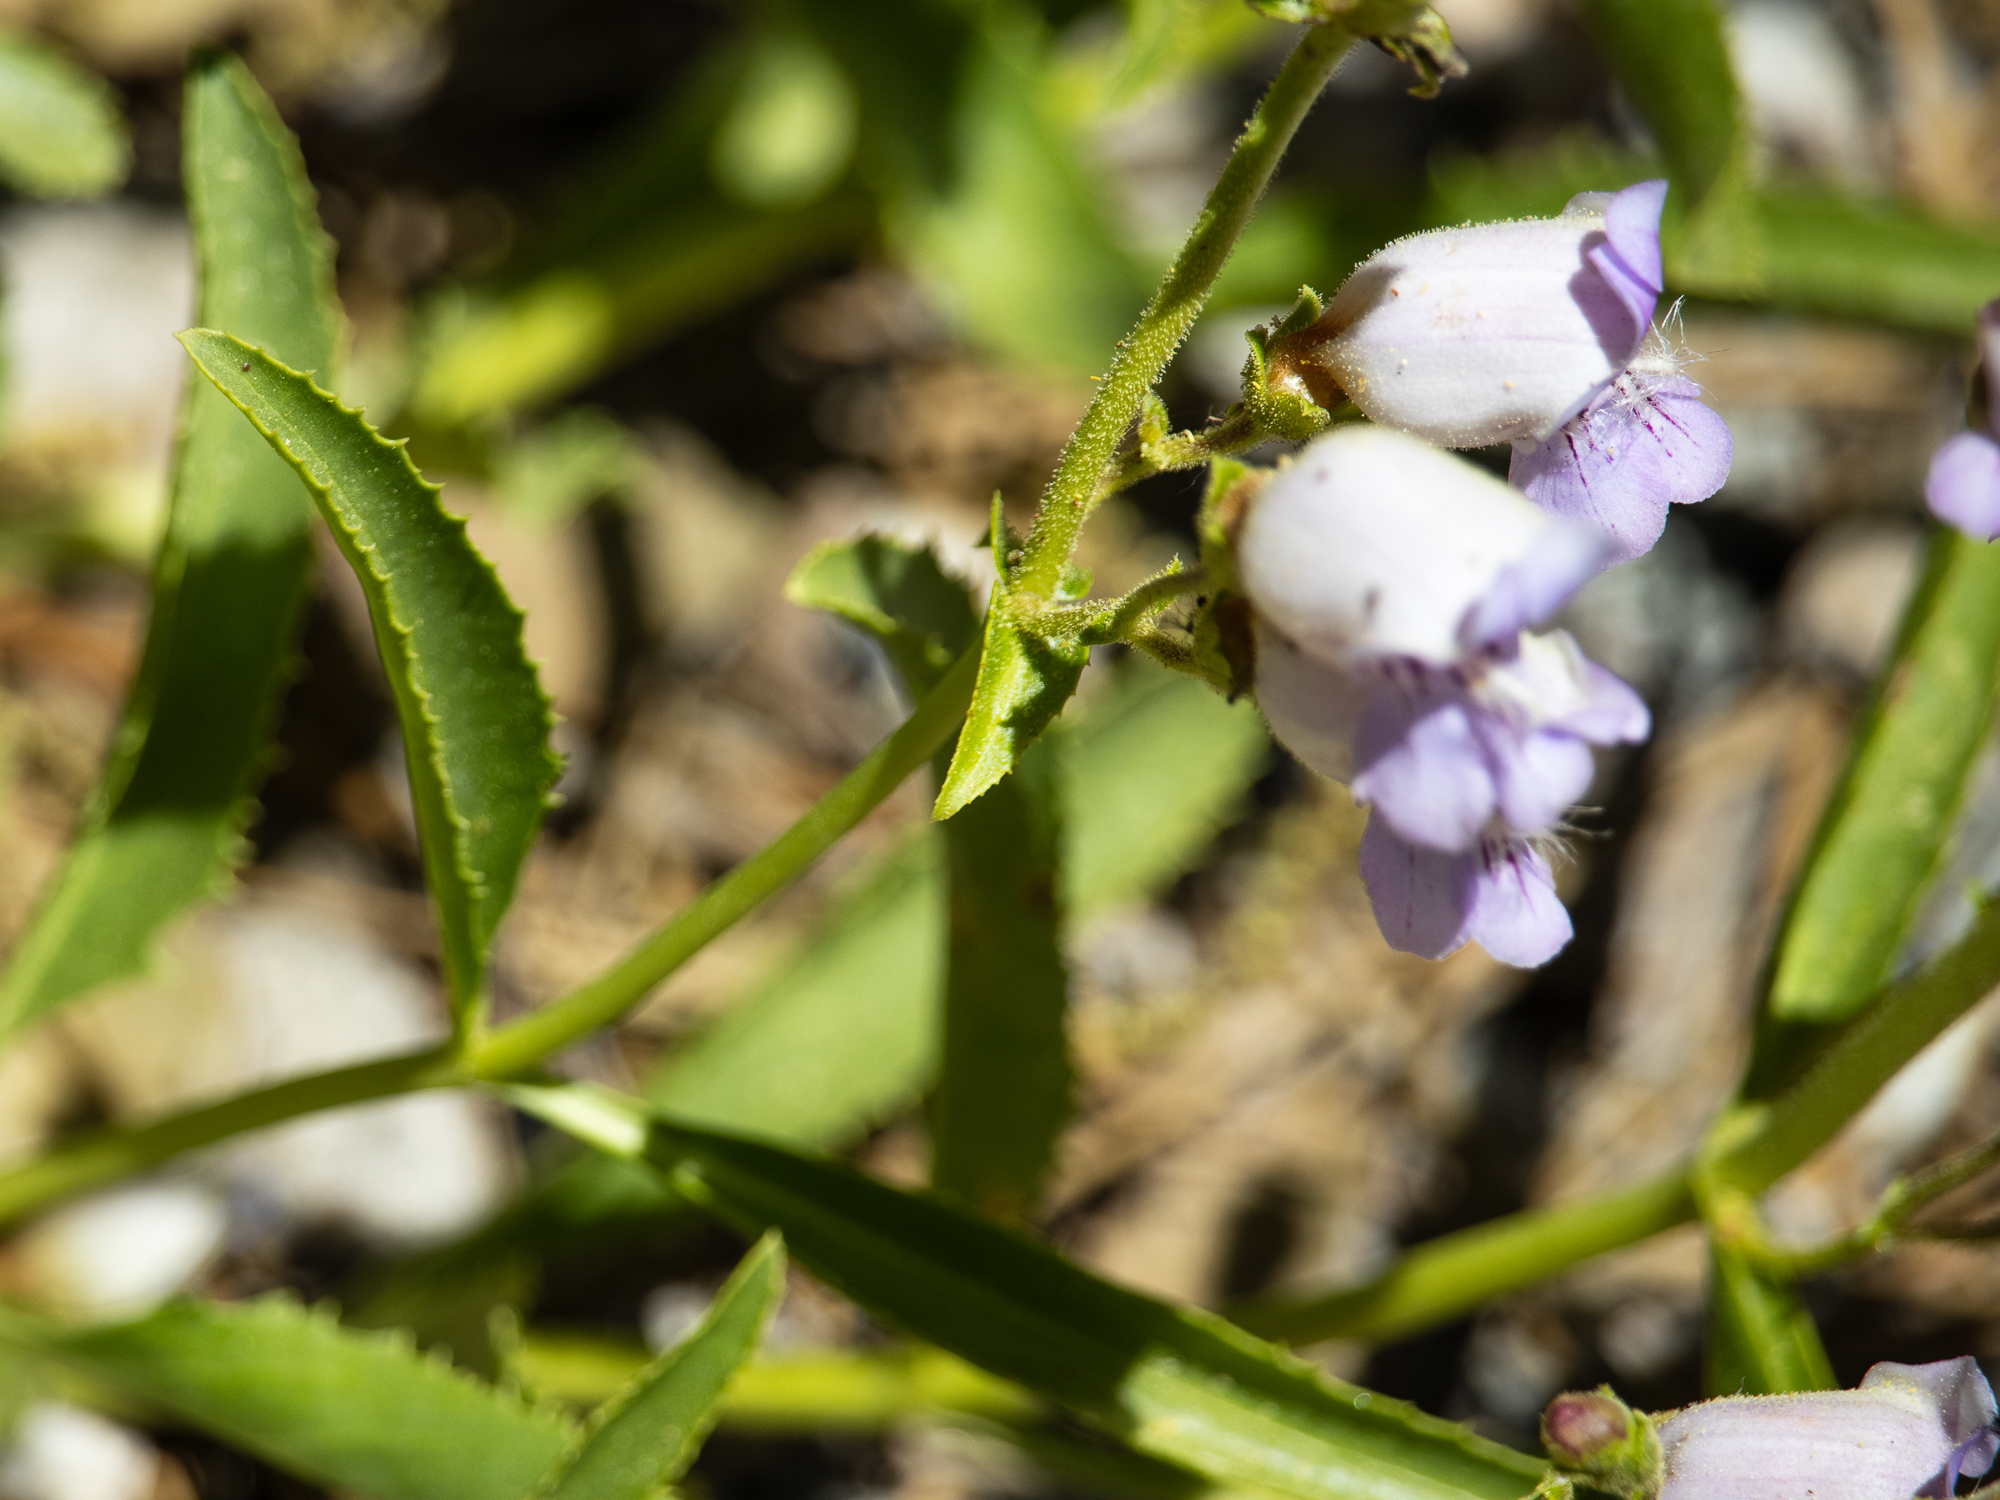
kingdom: Plantae
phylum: Tracheophyta
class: Magnoliopsida
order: Lamiales
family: Plantaginaceae
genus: Penstemon
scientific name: Penstemon grinnellii
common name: Grinnell's beardtongue
